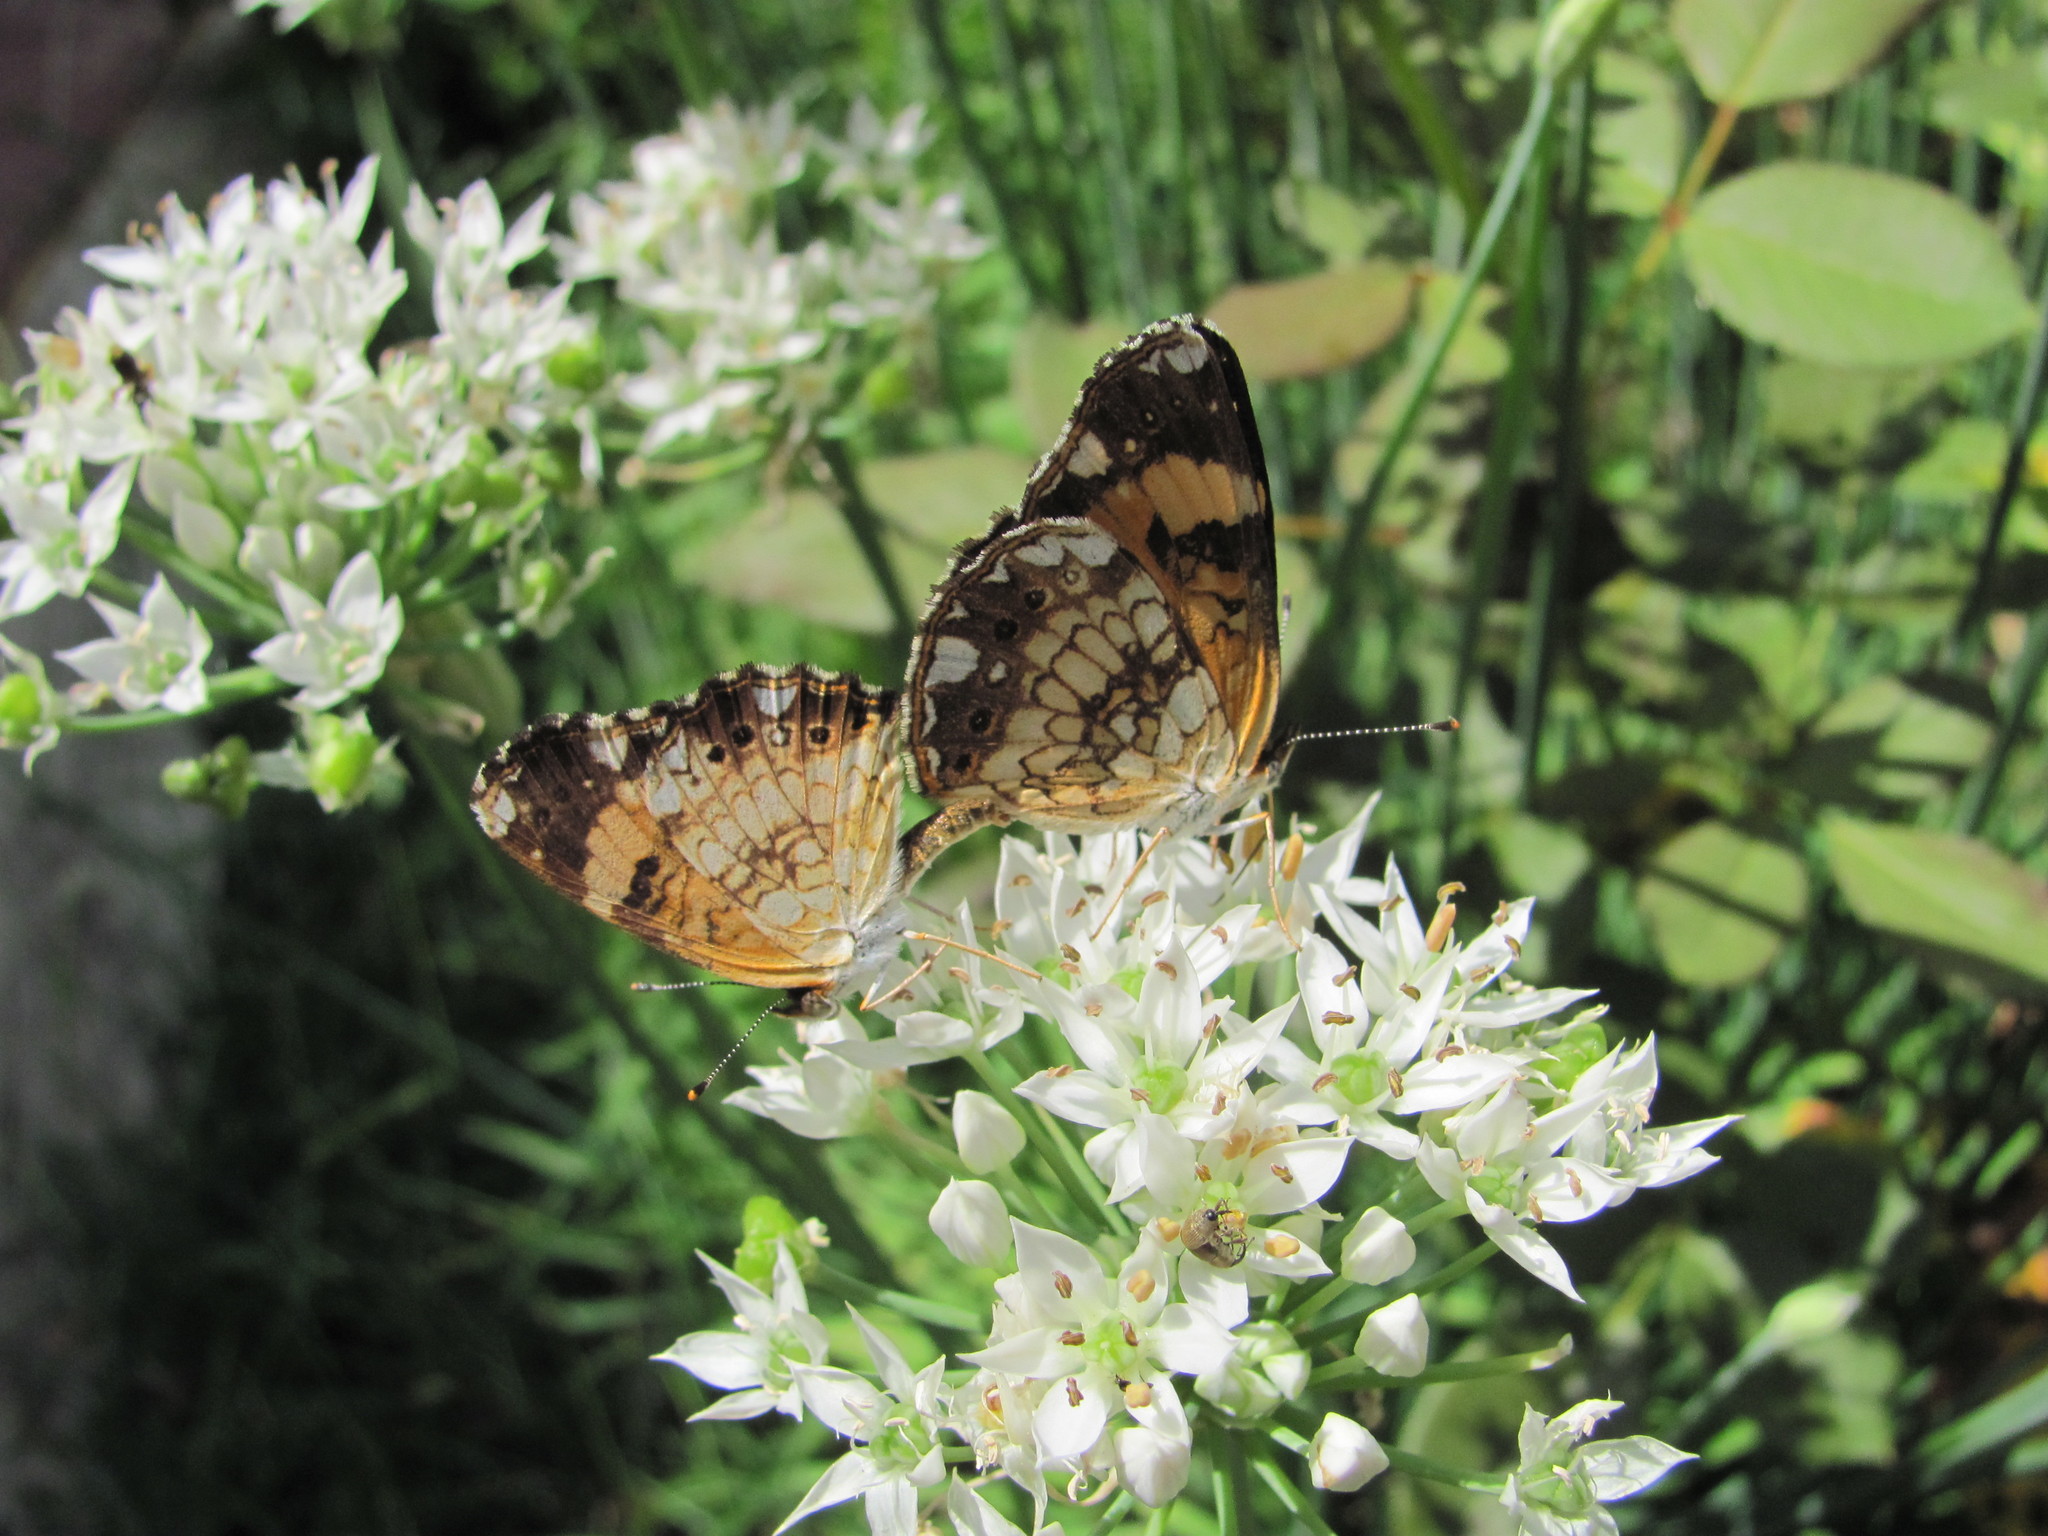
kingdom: Animalia
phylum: Arthropoda
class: Insecta
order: Lepidoptera
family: Nymphalidae
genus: Chlosyne
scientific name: Chlosyne nycteis
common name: Silvery checkerspot
